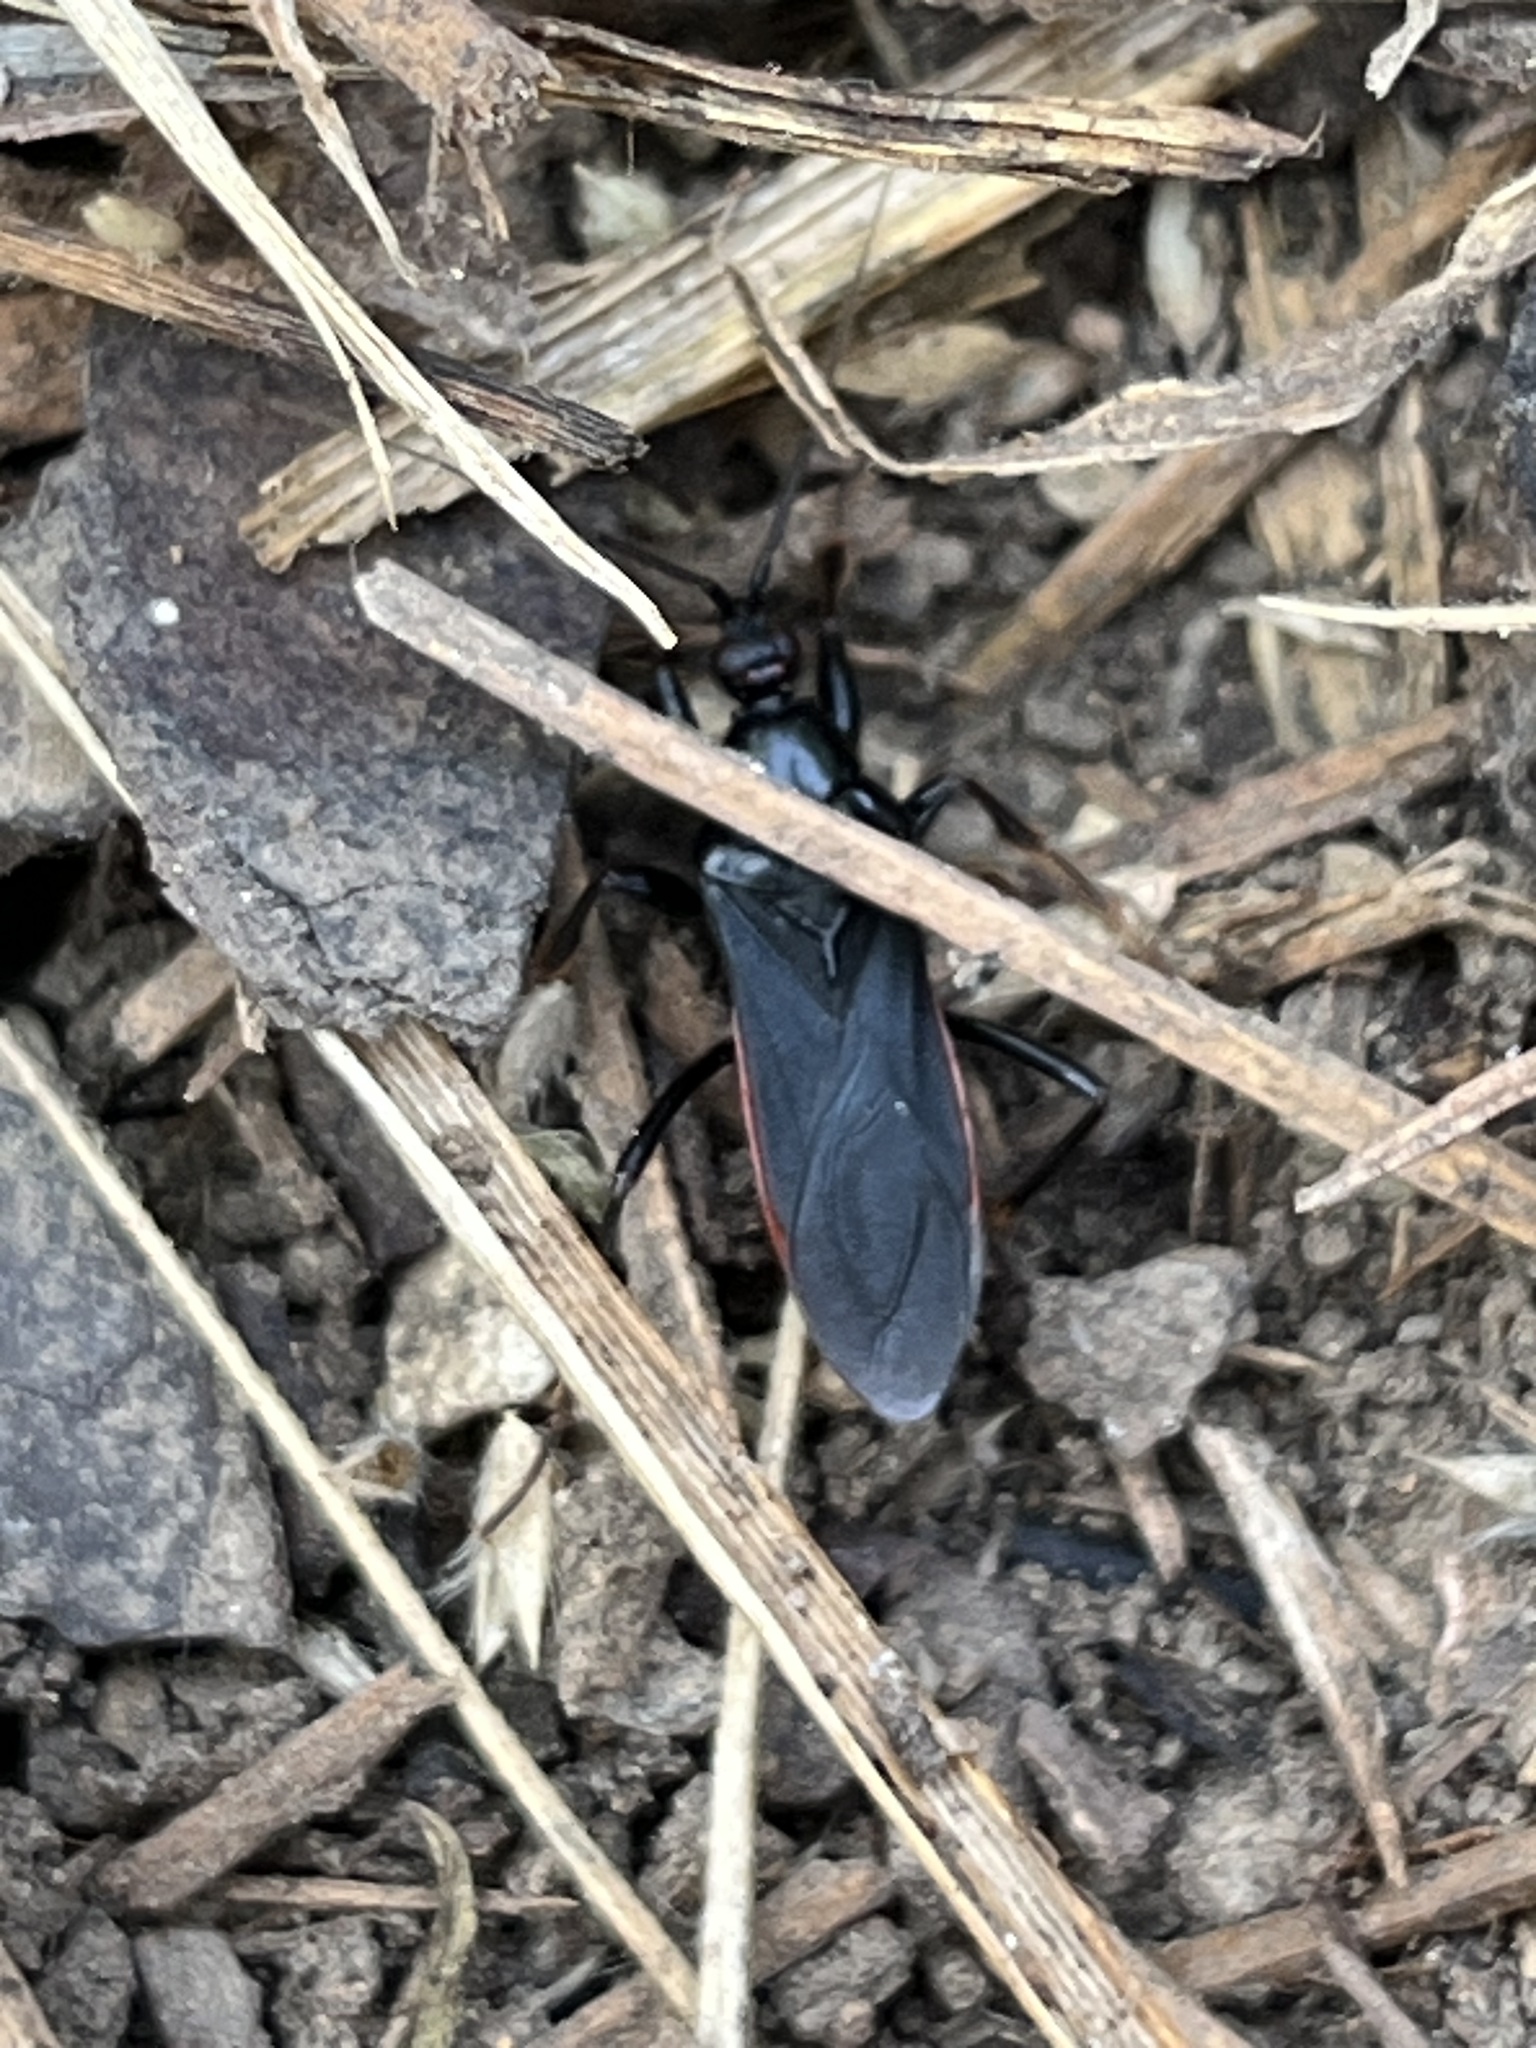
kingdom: Animalia
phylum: Arthropoda
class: Insecta
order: Hemiptera
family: Reduviidae
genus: Melanolestes
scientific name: Melanolestes picipes
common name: Assassin bug
